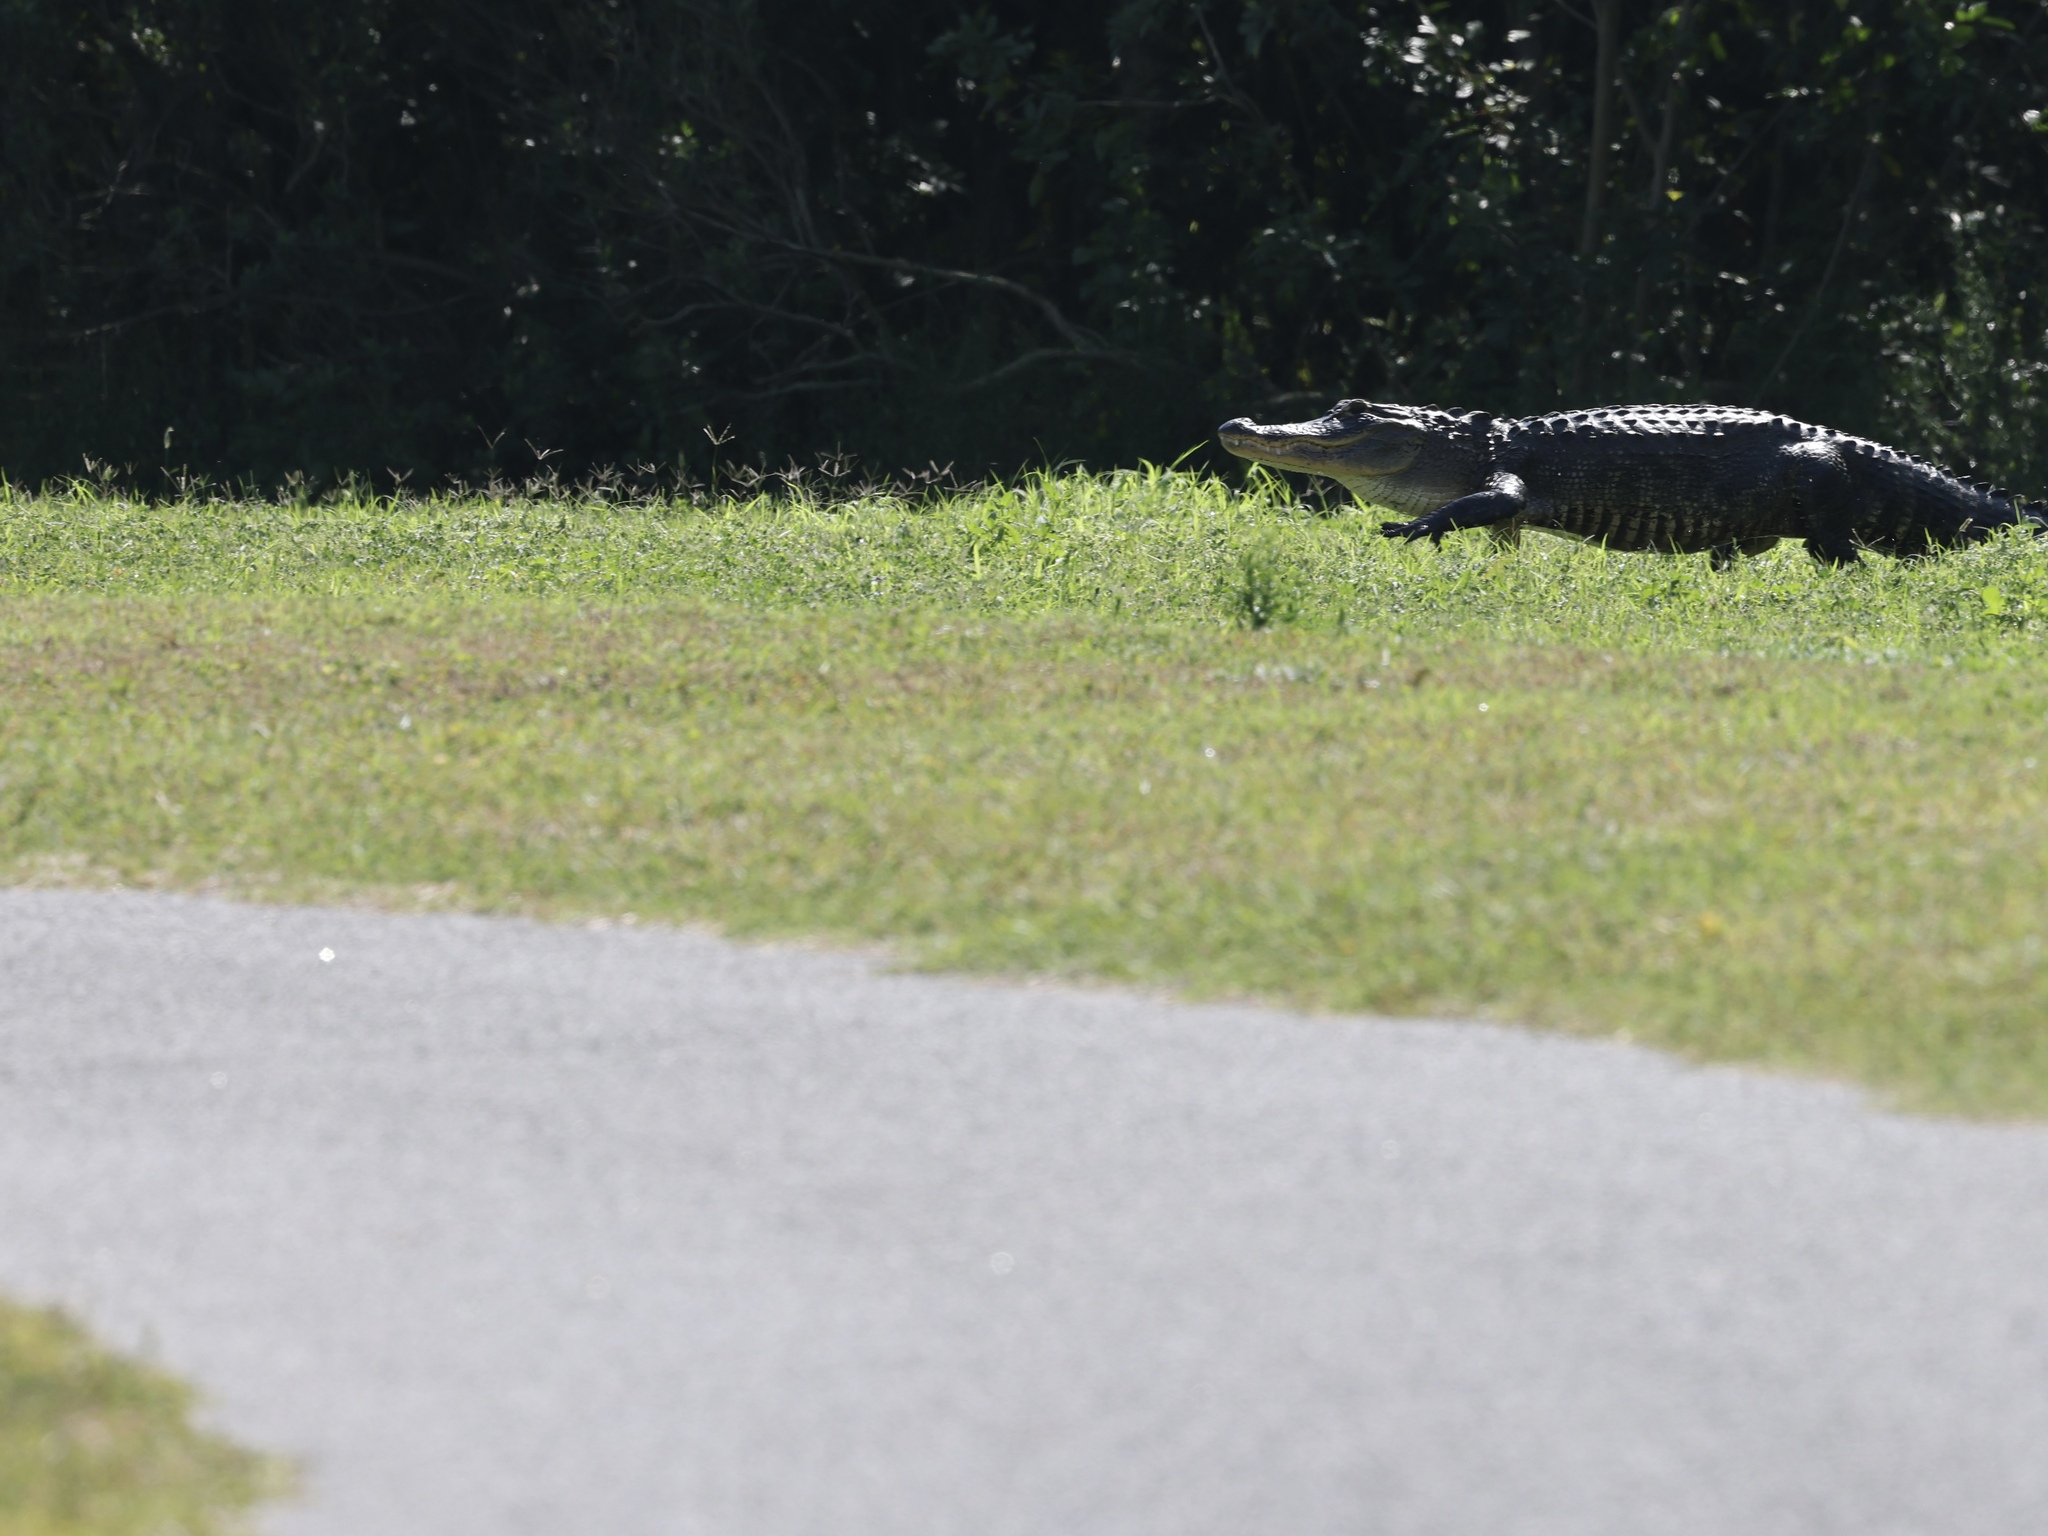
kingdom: Animalia
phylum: Chordata
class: Crocodylia
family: Alligatoridae
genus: Alligator
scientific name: Alligator mississippiensis
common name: American alligator
